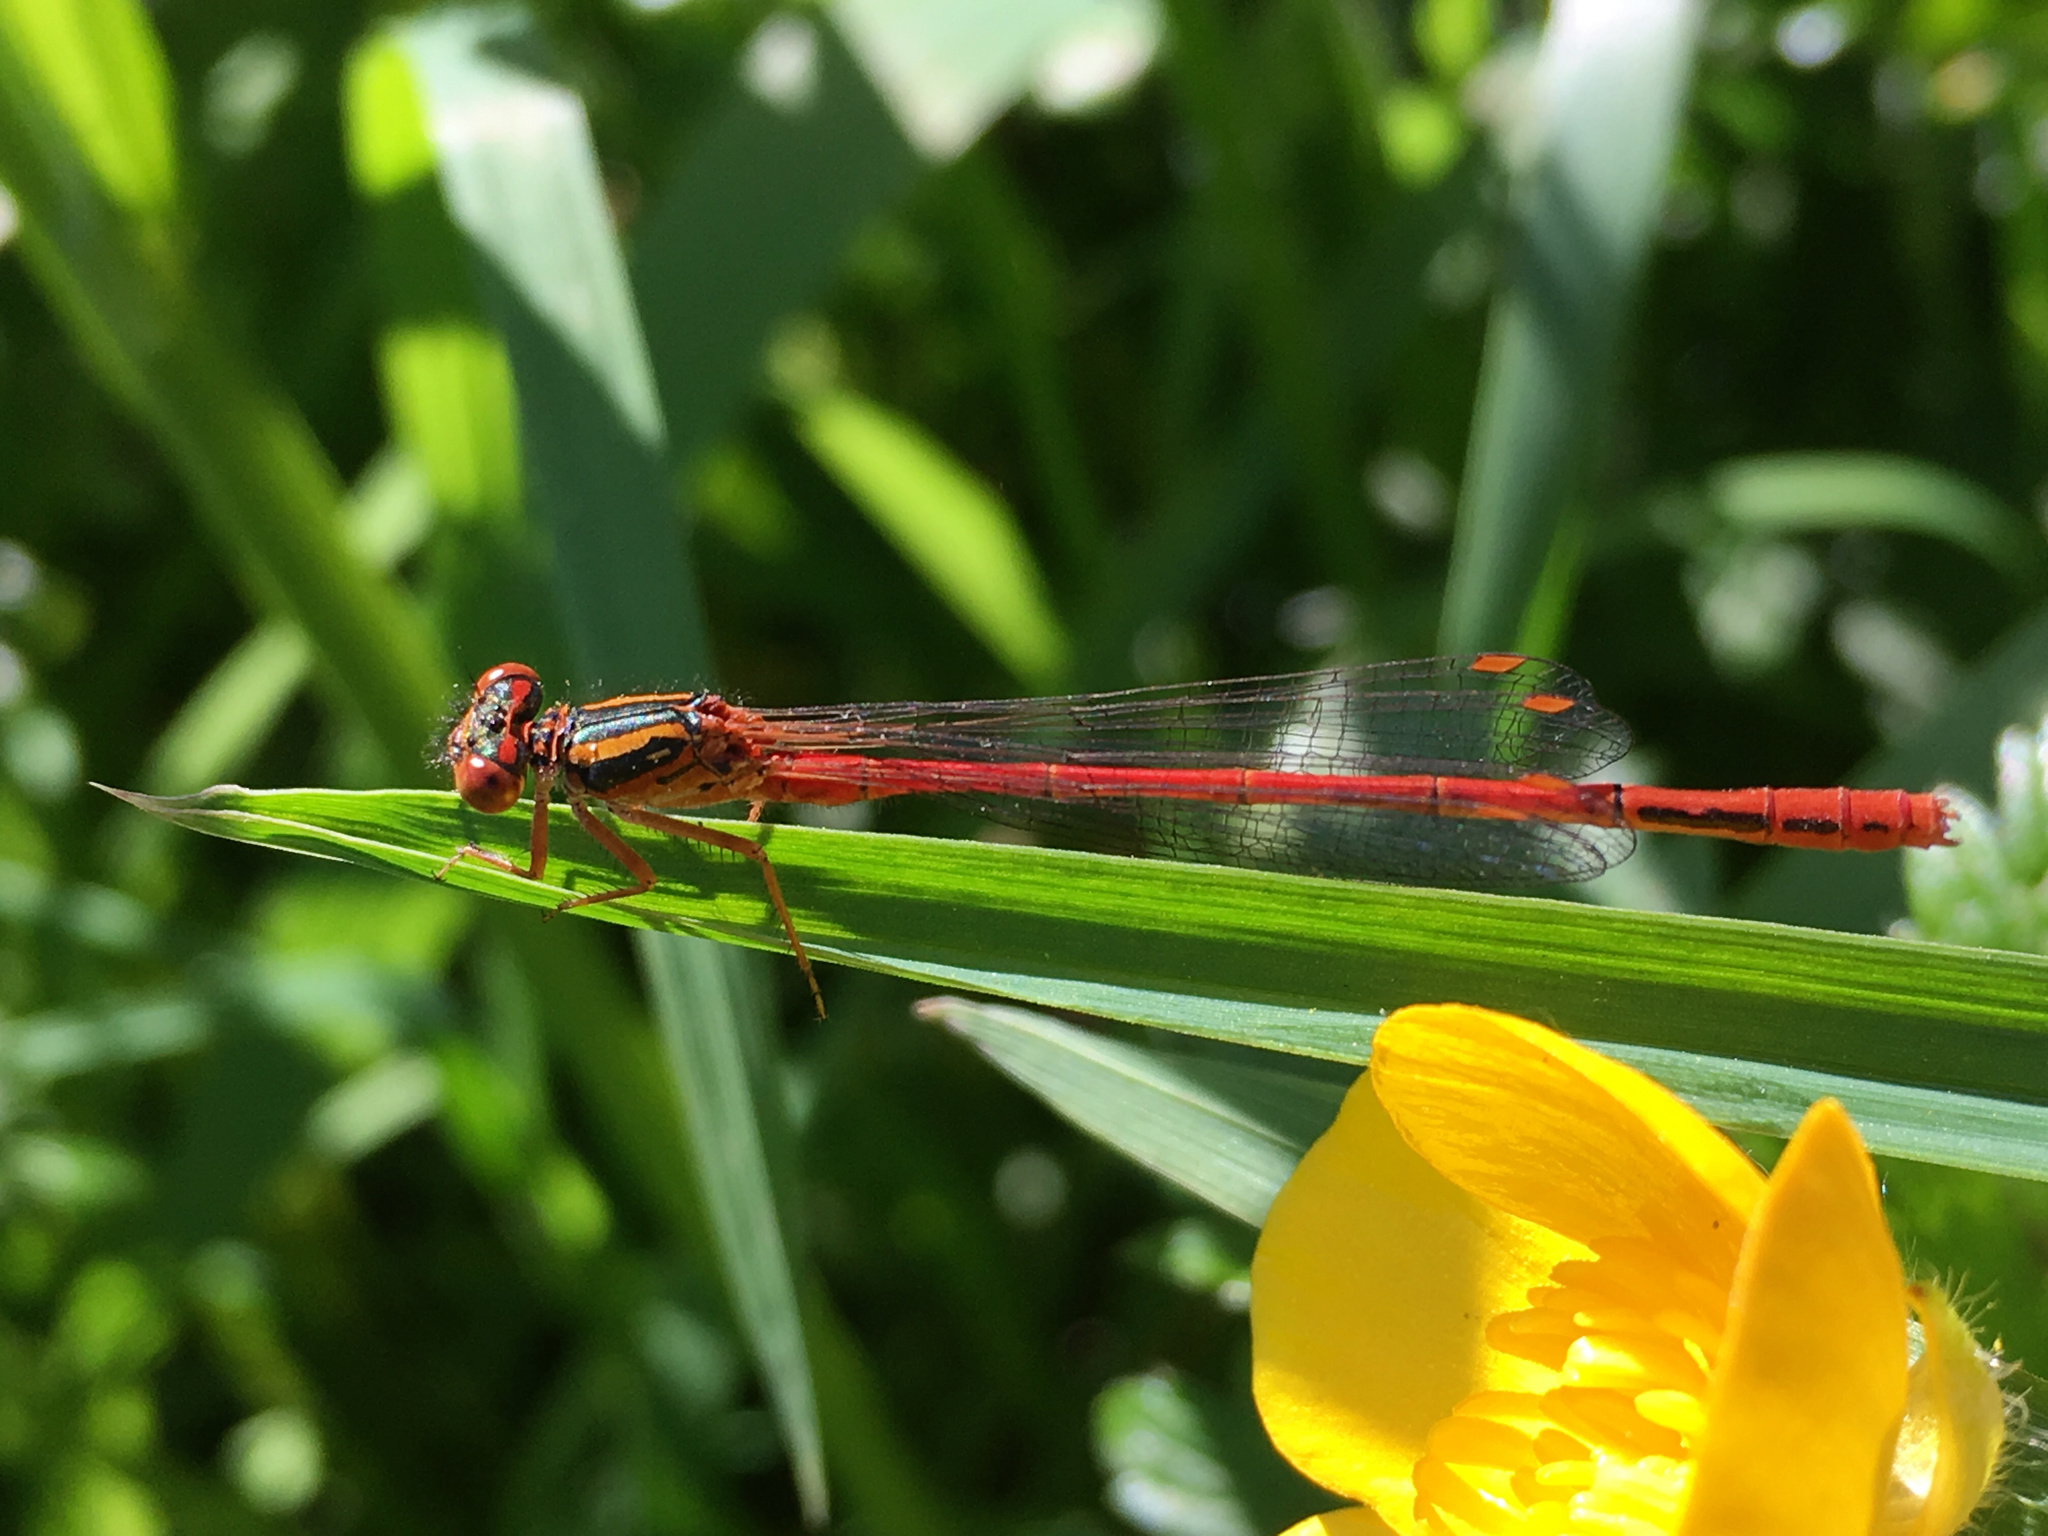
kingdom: Animalia
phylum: Arthropoda
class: Insecta
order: Odonata
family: Coenagrionidae
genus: Xanthocnemis
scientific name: Xanthocnemis zealandica
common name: Common redcoat damselfly
